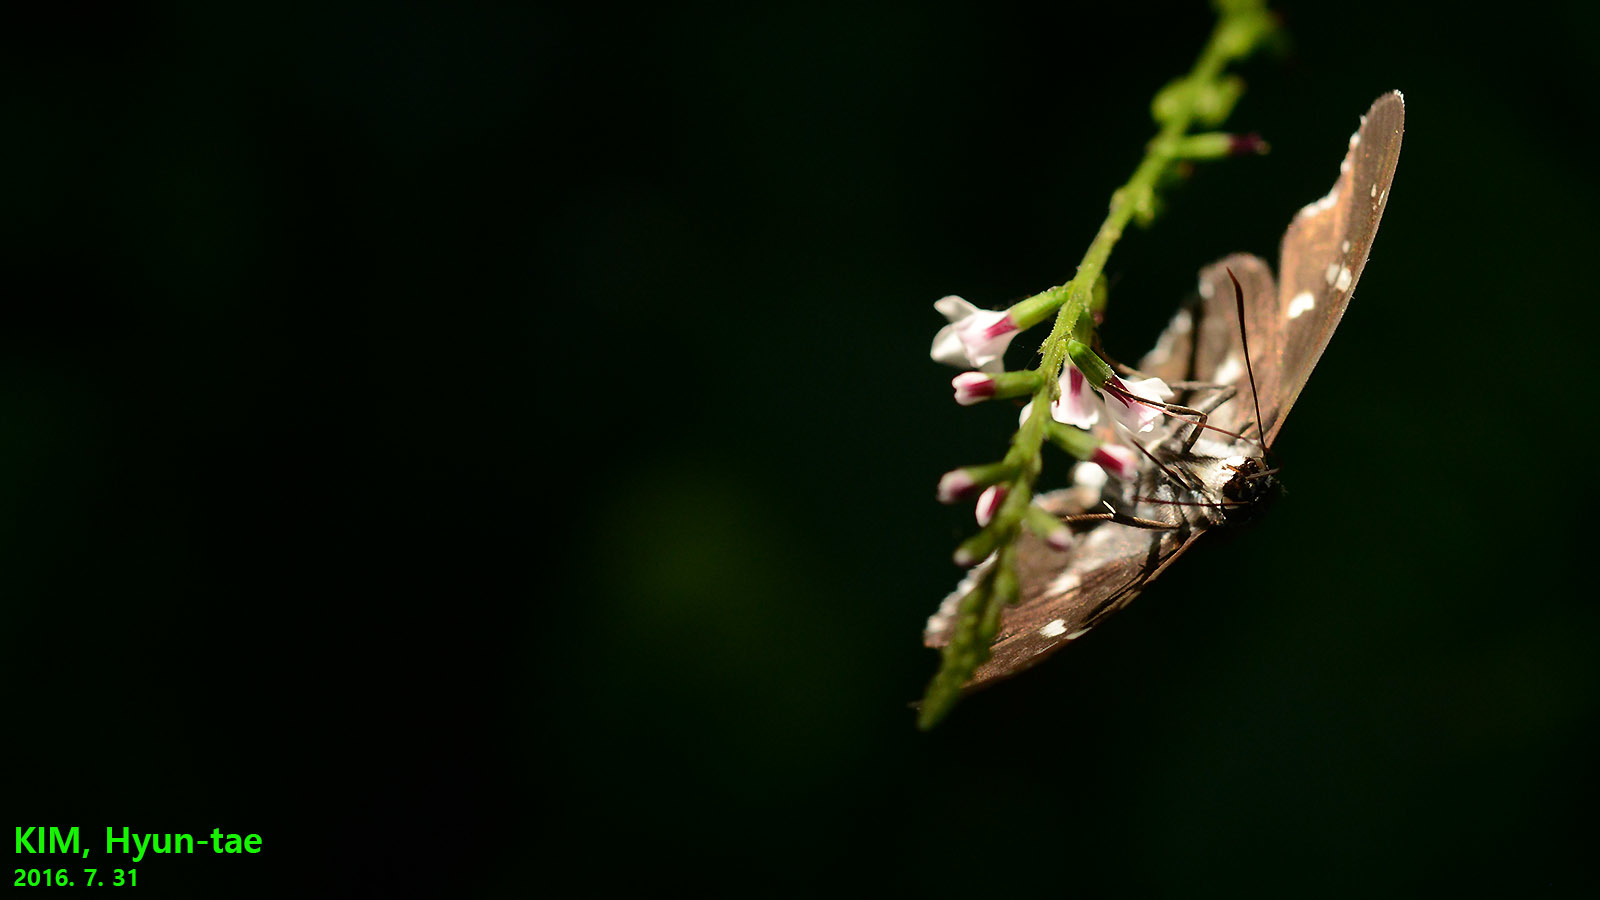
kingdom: Animalia
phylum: Arthropoda
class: Insecta
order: Lepidoptera
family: Hesperiidae
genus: Daimio
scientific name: Daimio tethys
